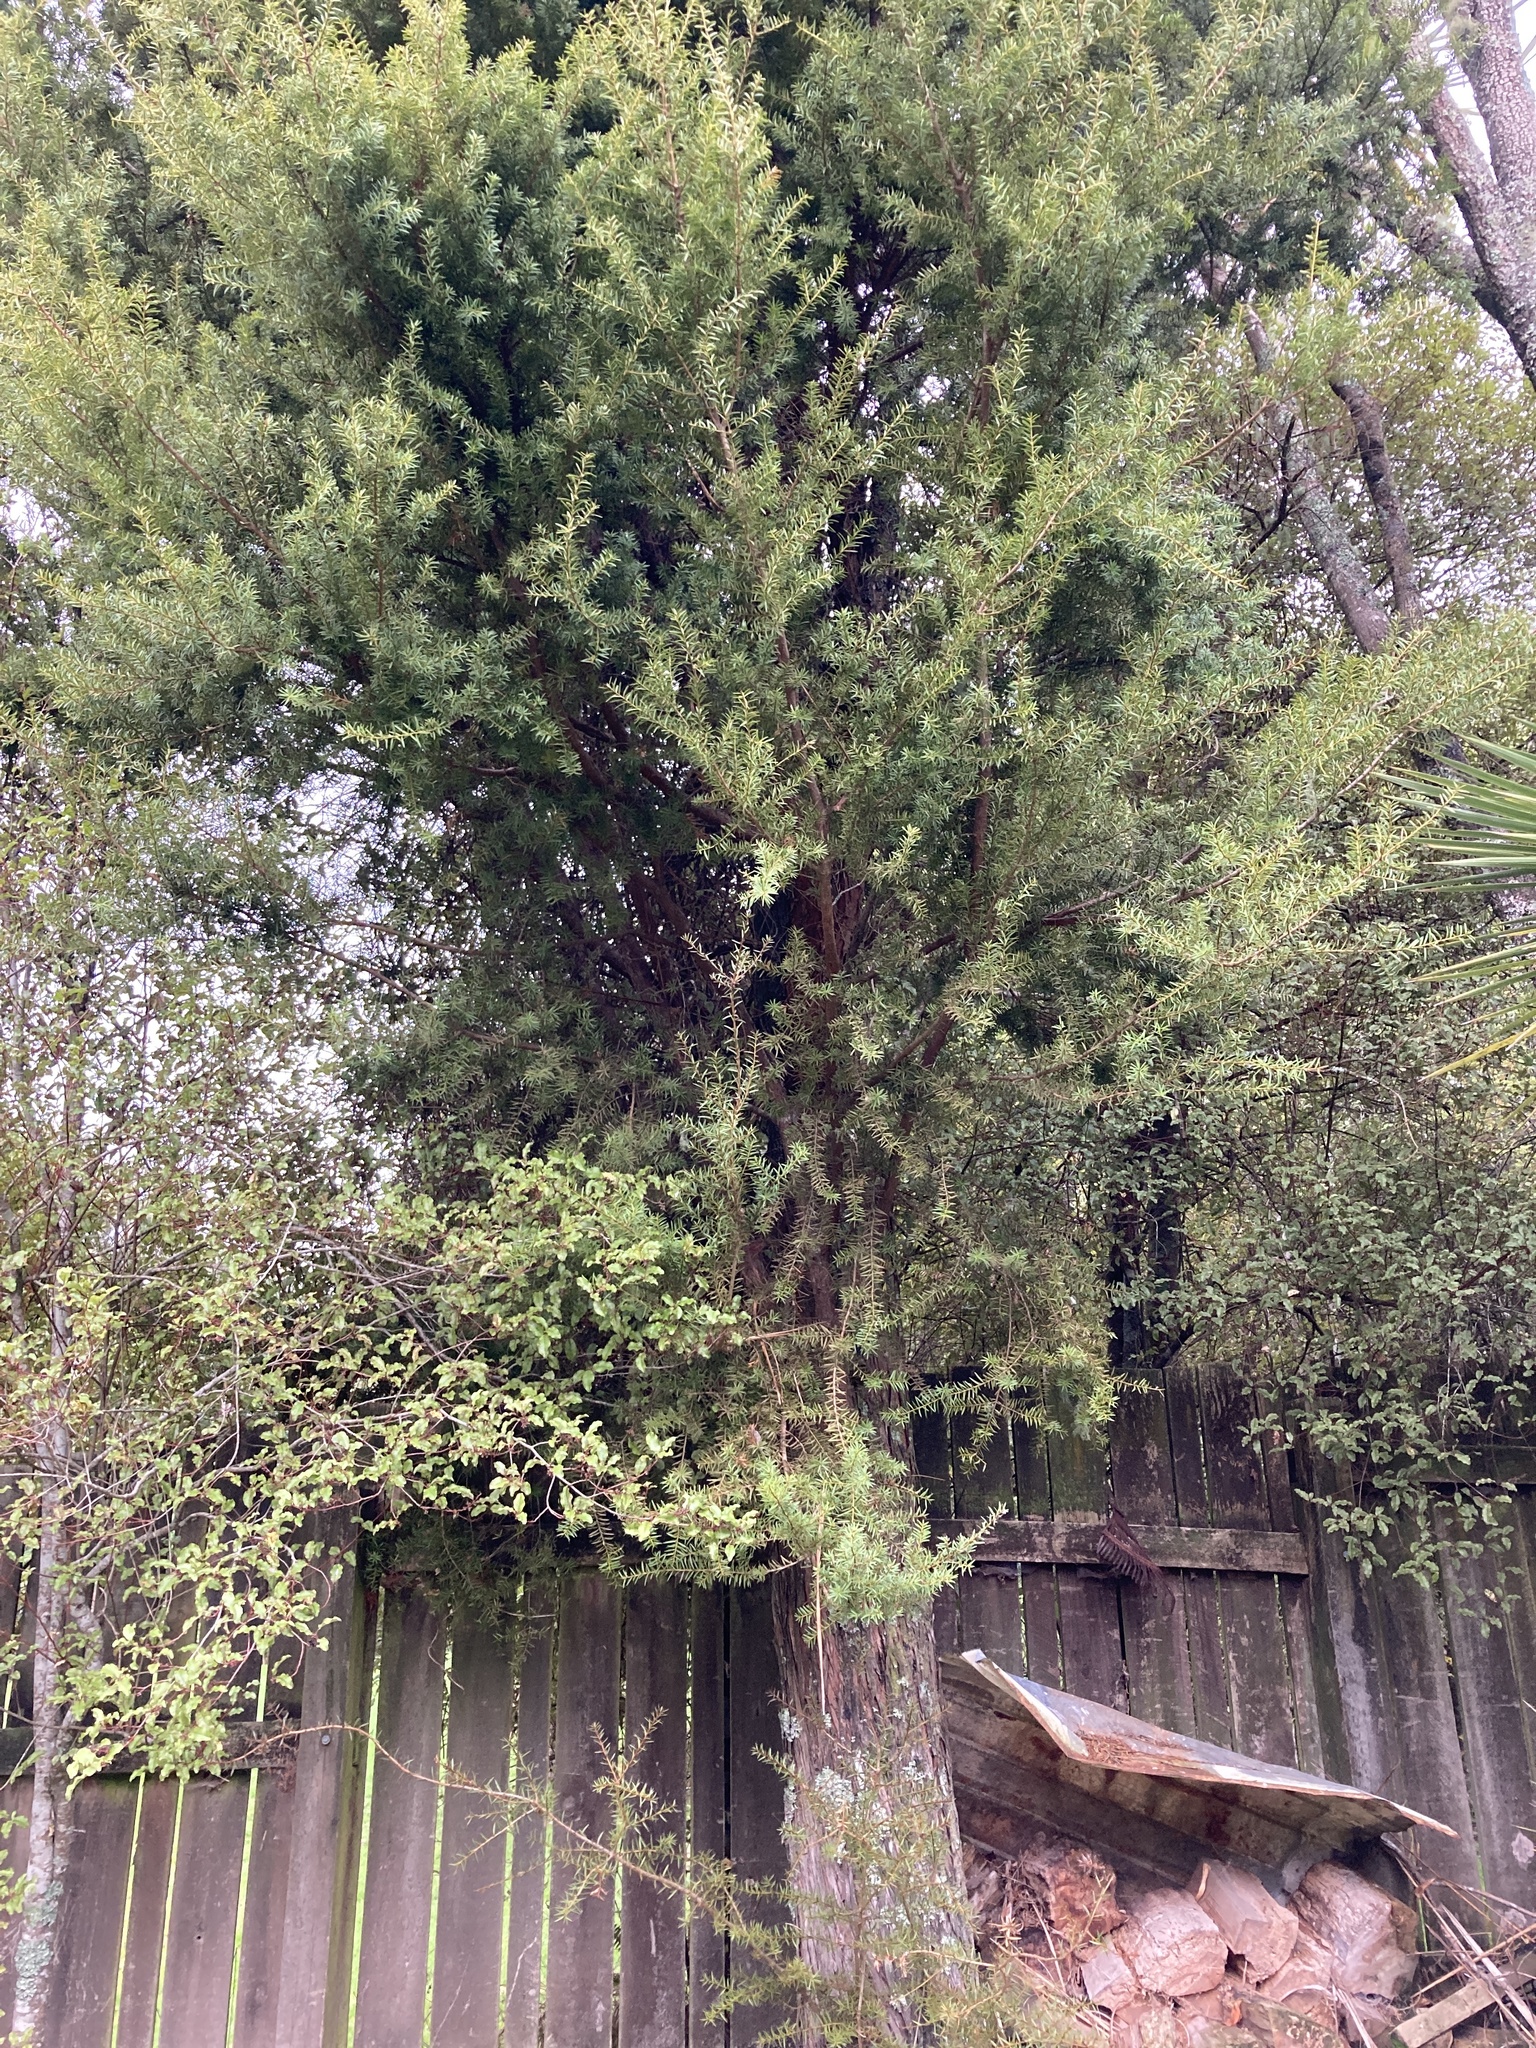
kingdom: Plantae
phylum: Tracheophyta
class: Pinopsida
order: Pinales
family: Podocarpaceae
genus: Podocarpus
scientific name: Podocarpus totara
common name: Totara
